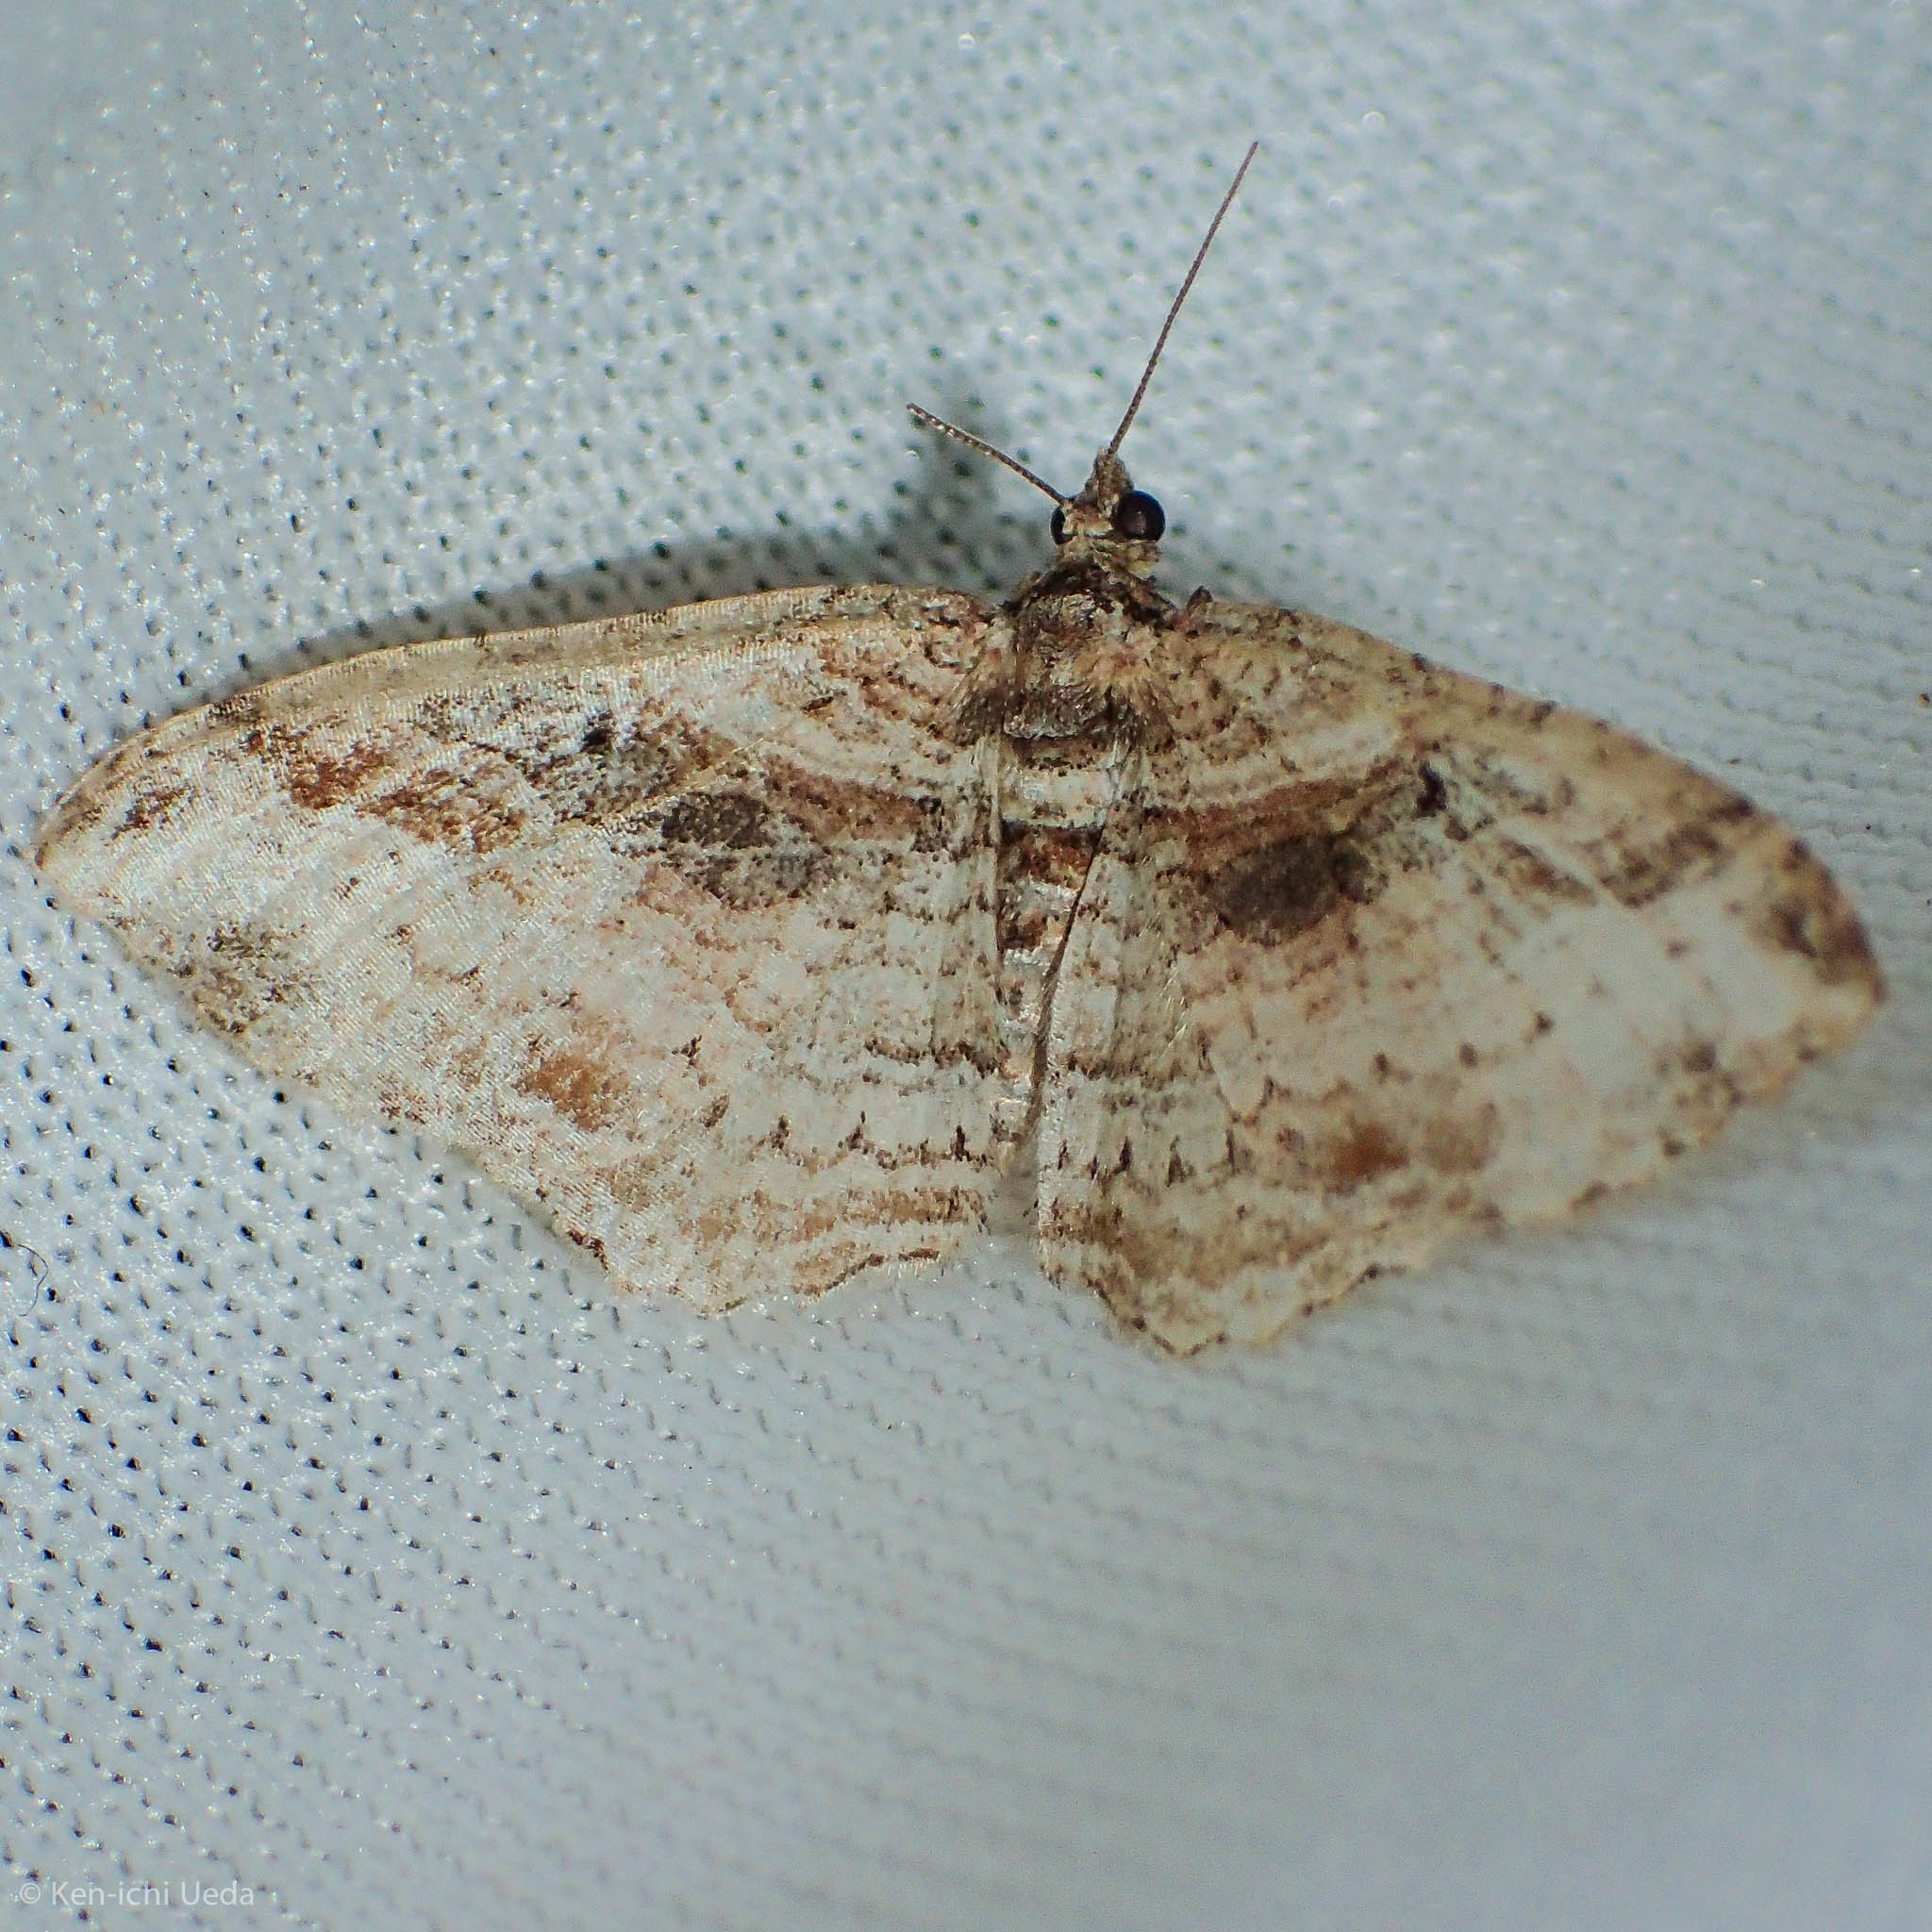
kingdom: Animalia
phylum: Arthropoda
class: Insecta
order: Lepidoptera
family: Geometridae
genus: Costaconvexa
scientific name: Costaconvexa centrostrigaria
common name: Bent-line carpet
